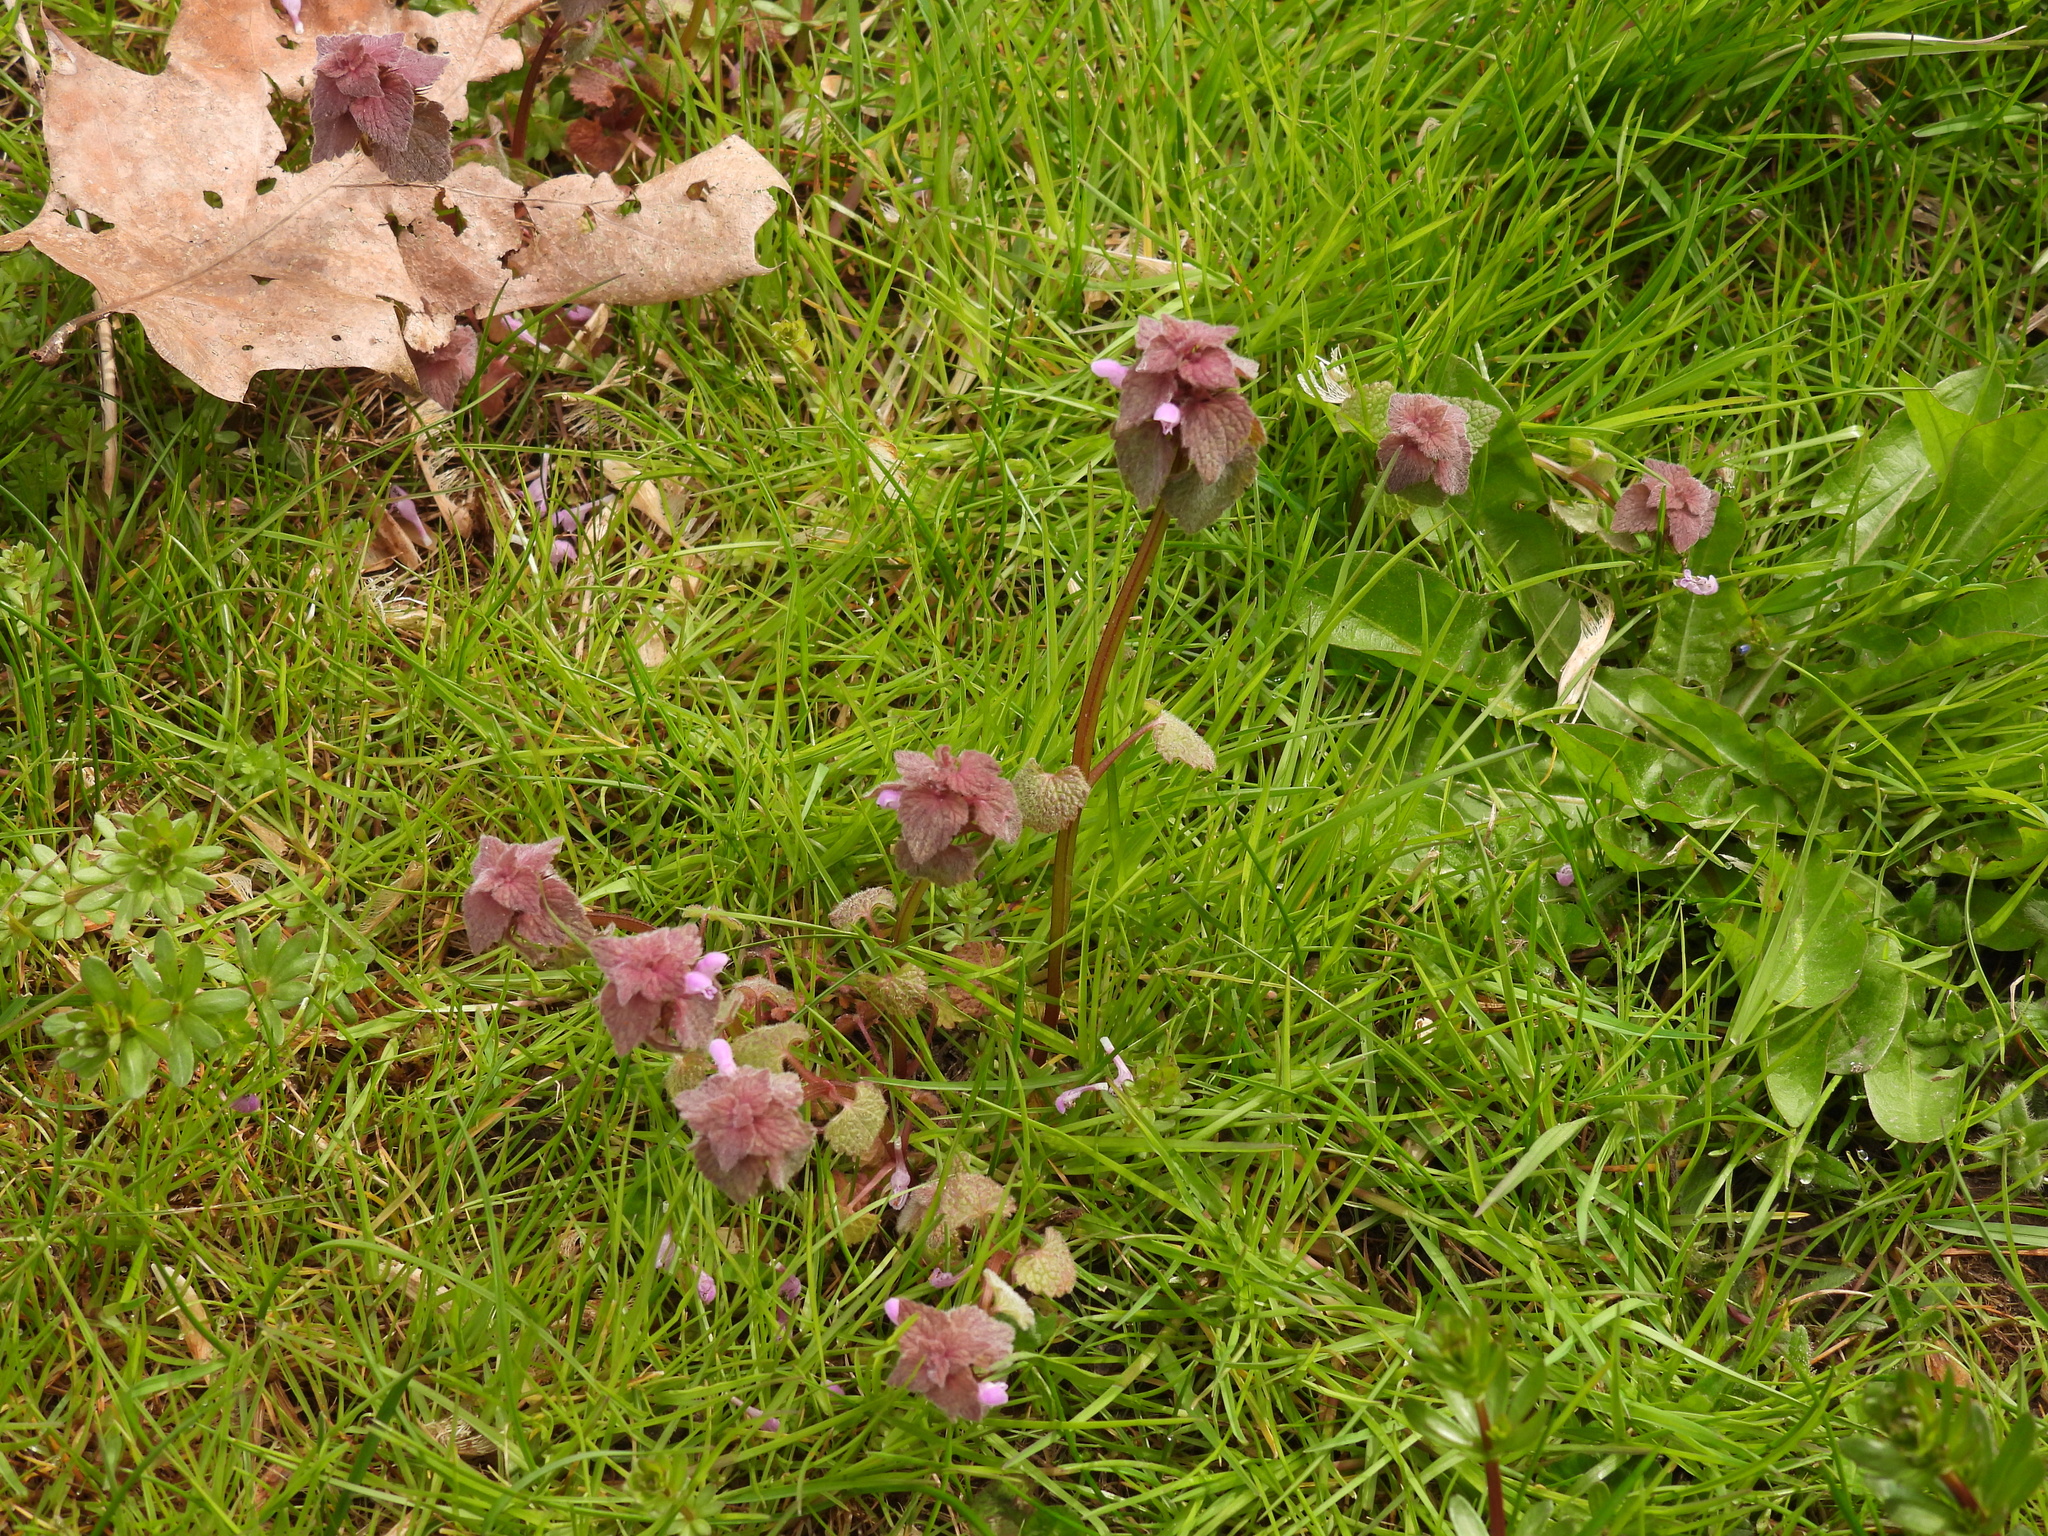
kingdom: Plantae
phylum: Tracheophyta
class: Magnoliopsida
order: Lamiales
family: Lamiaceae
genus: Lamium
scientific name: Lamium purpureum
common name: Red dead-nettle
